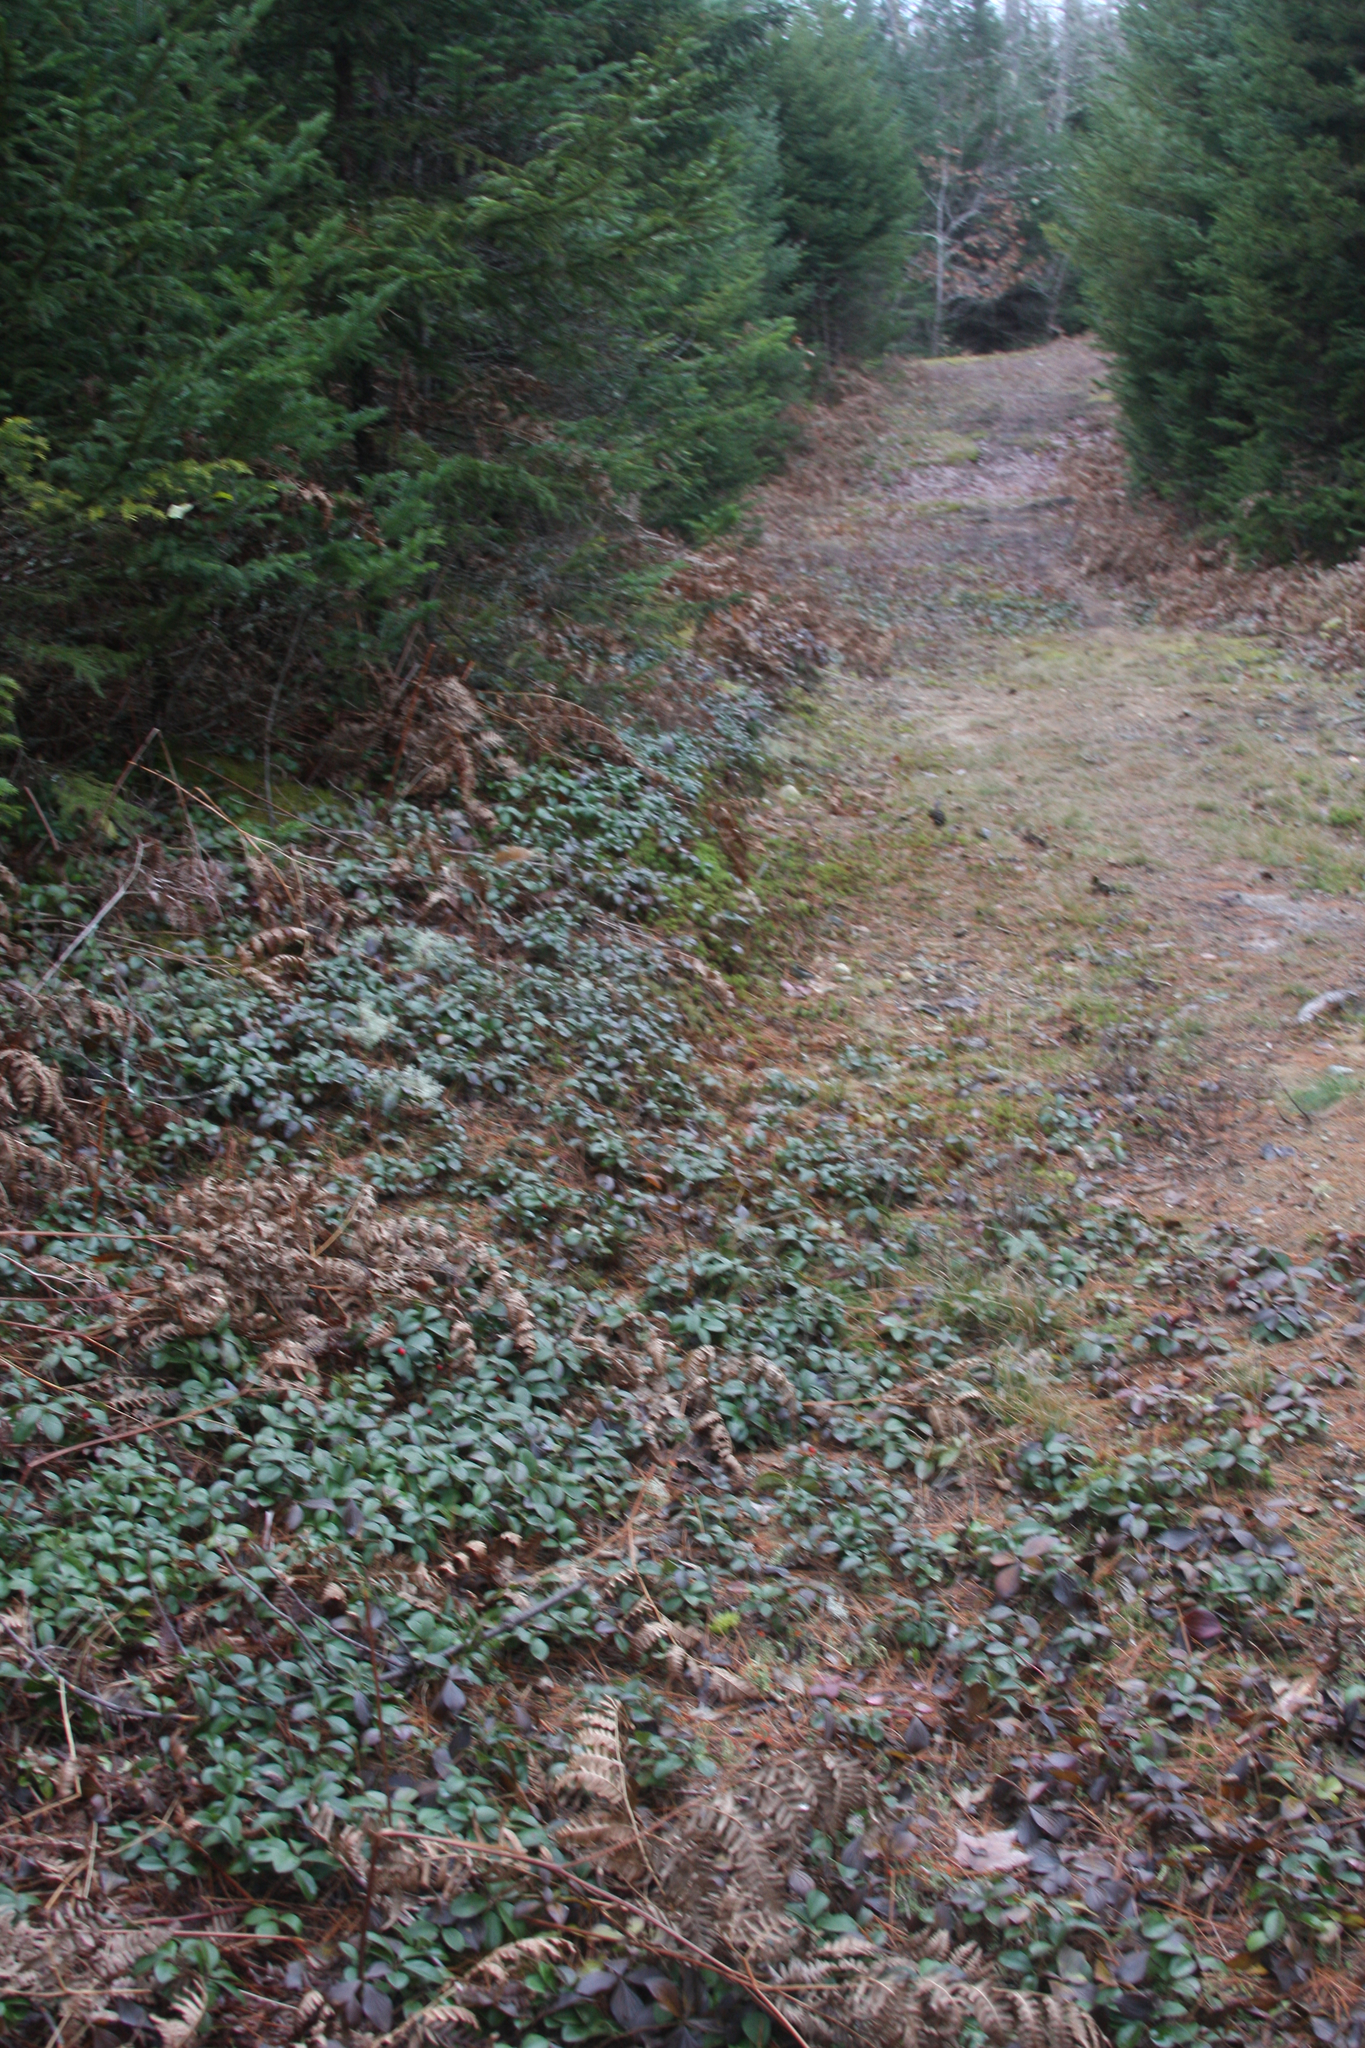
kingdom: Plantae
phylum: Tracheophyta
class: Magnoliopsida
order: Ericales
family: Ericaceae
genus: Gaultheria
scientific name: Gaultheria procumbens
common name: Checkerberry
